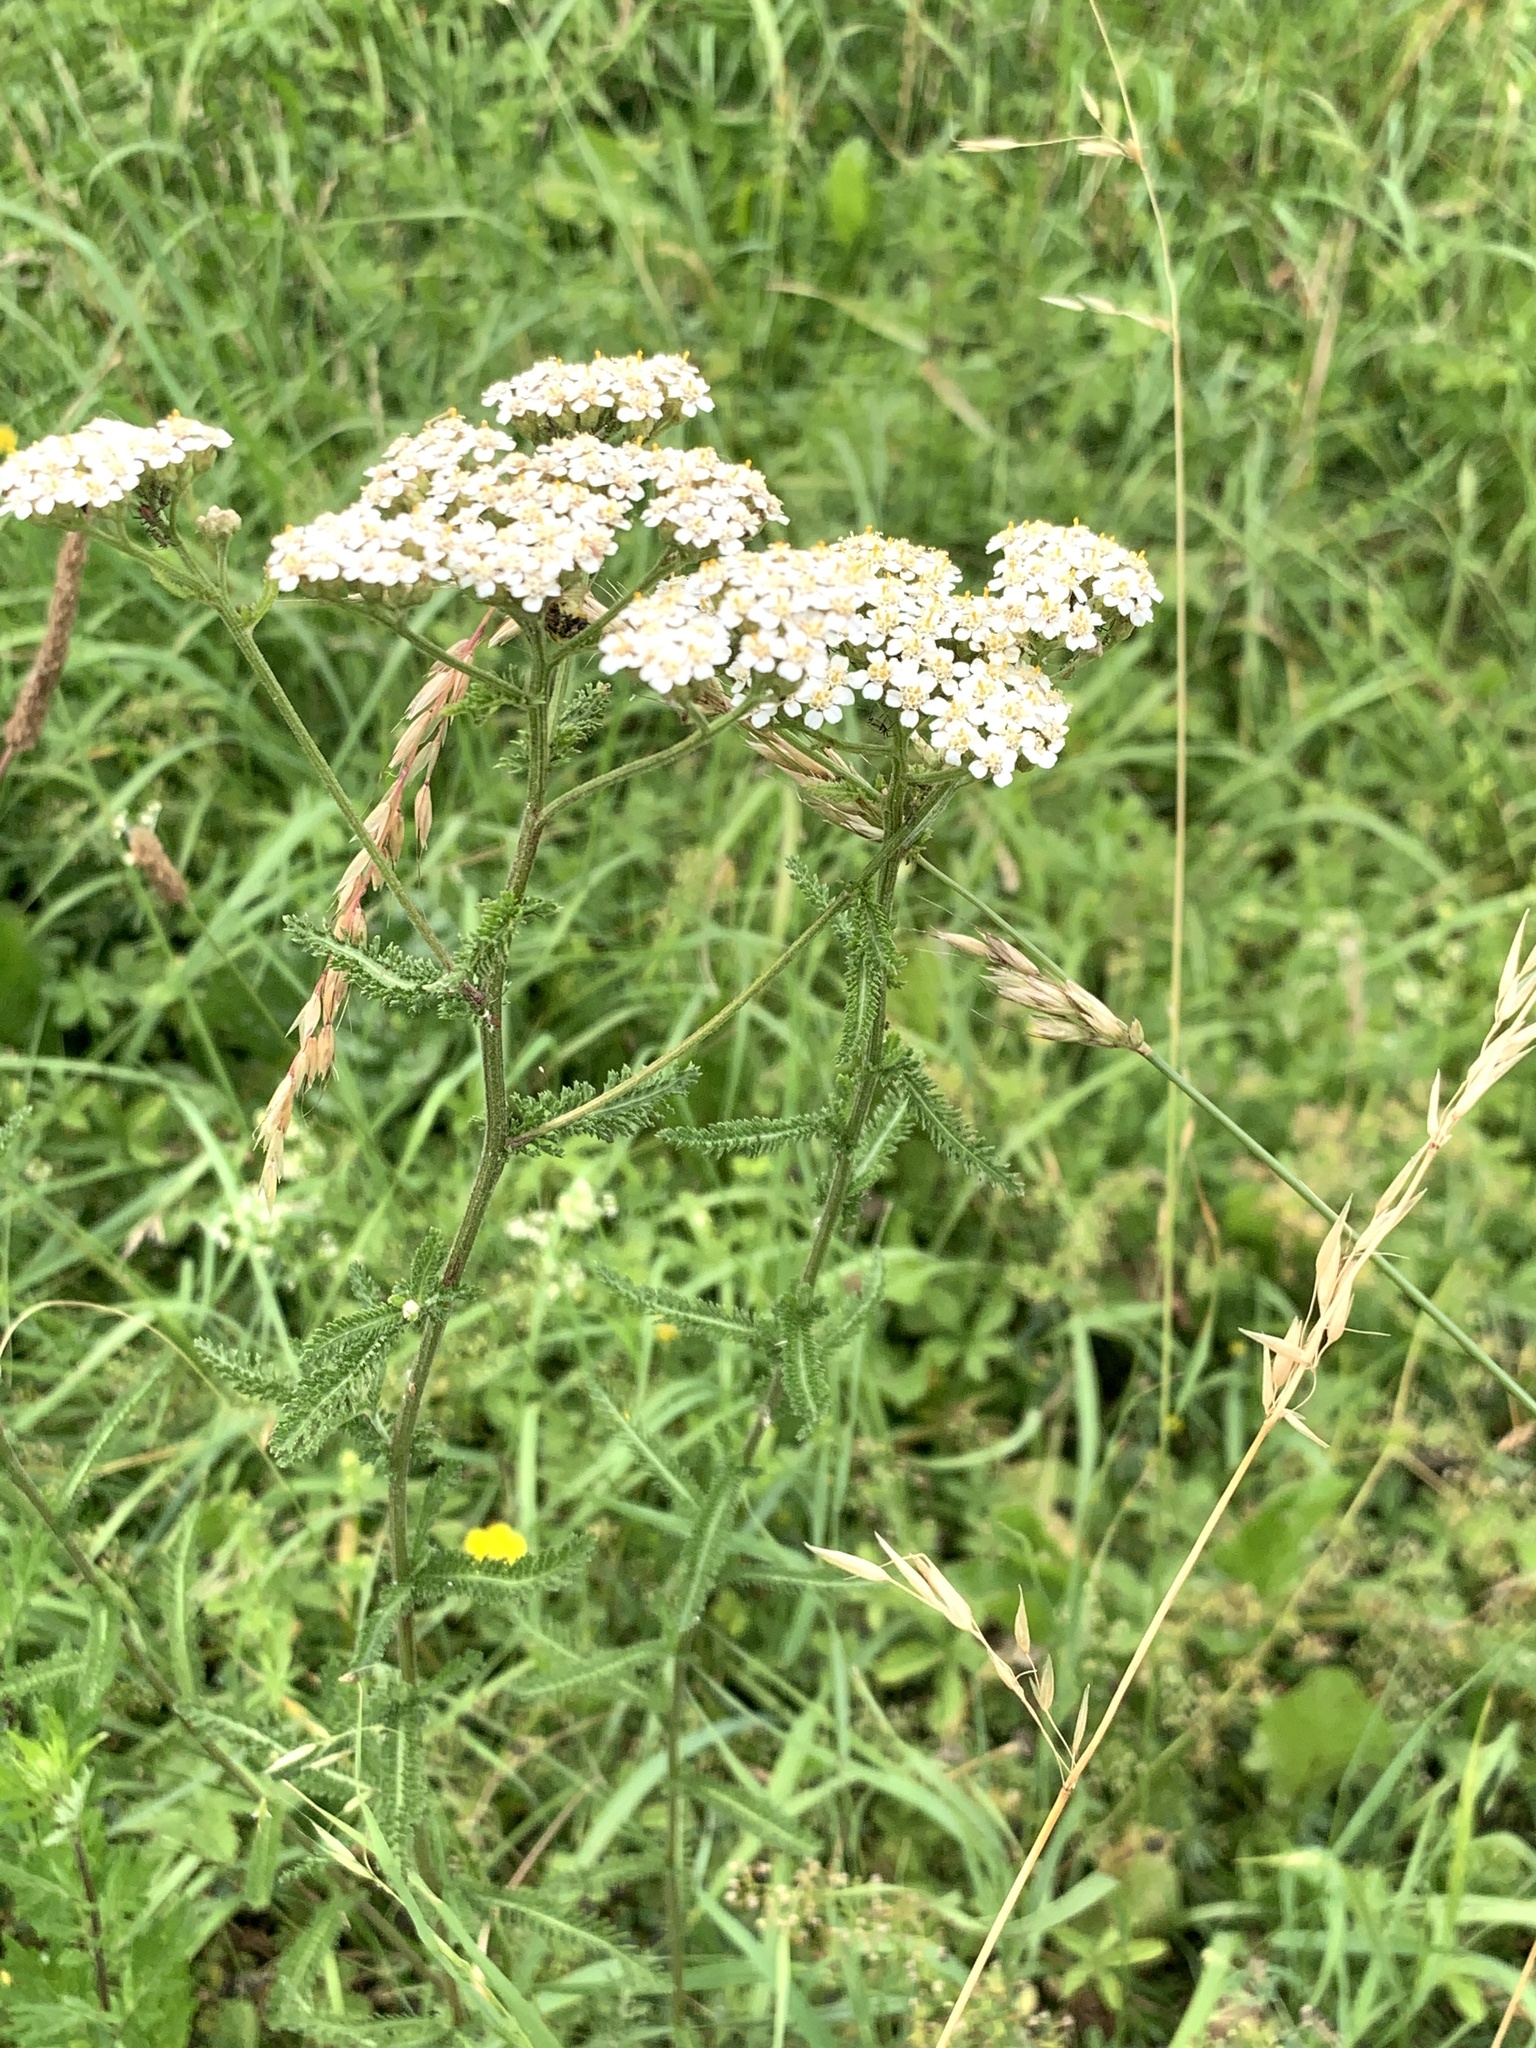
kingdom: Plantae
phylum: Tracheophyta
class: Magnoliopsida
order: Asterales
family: Asteraceae
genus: Achillea
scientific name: Achillea millefolium
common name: Yarrow
